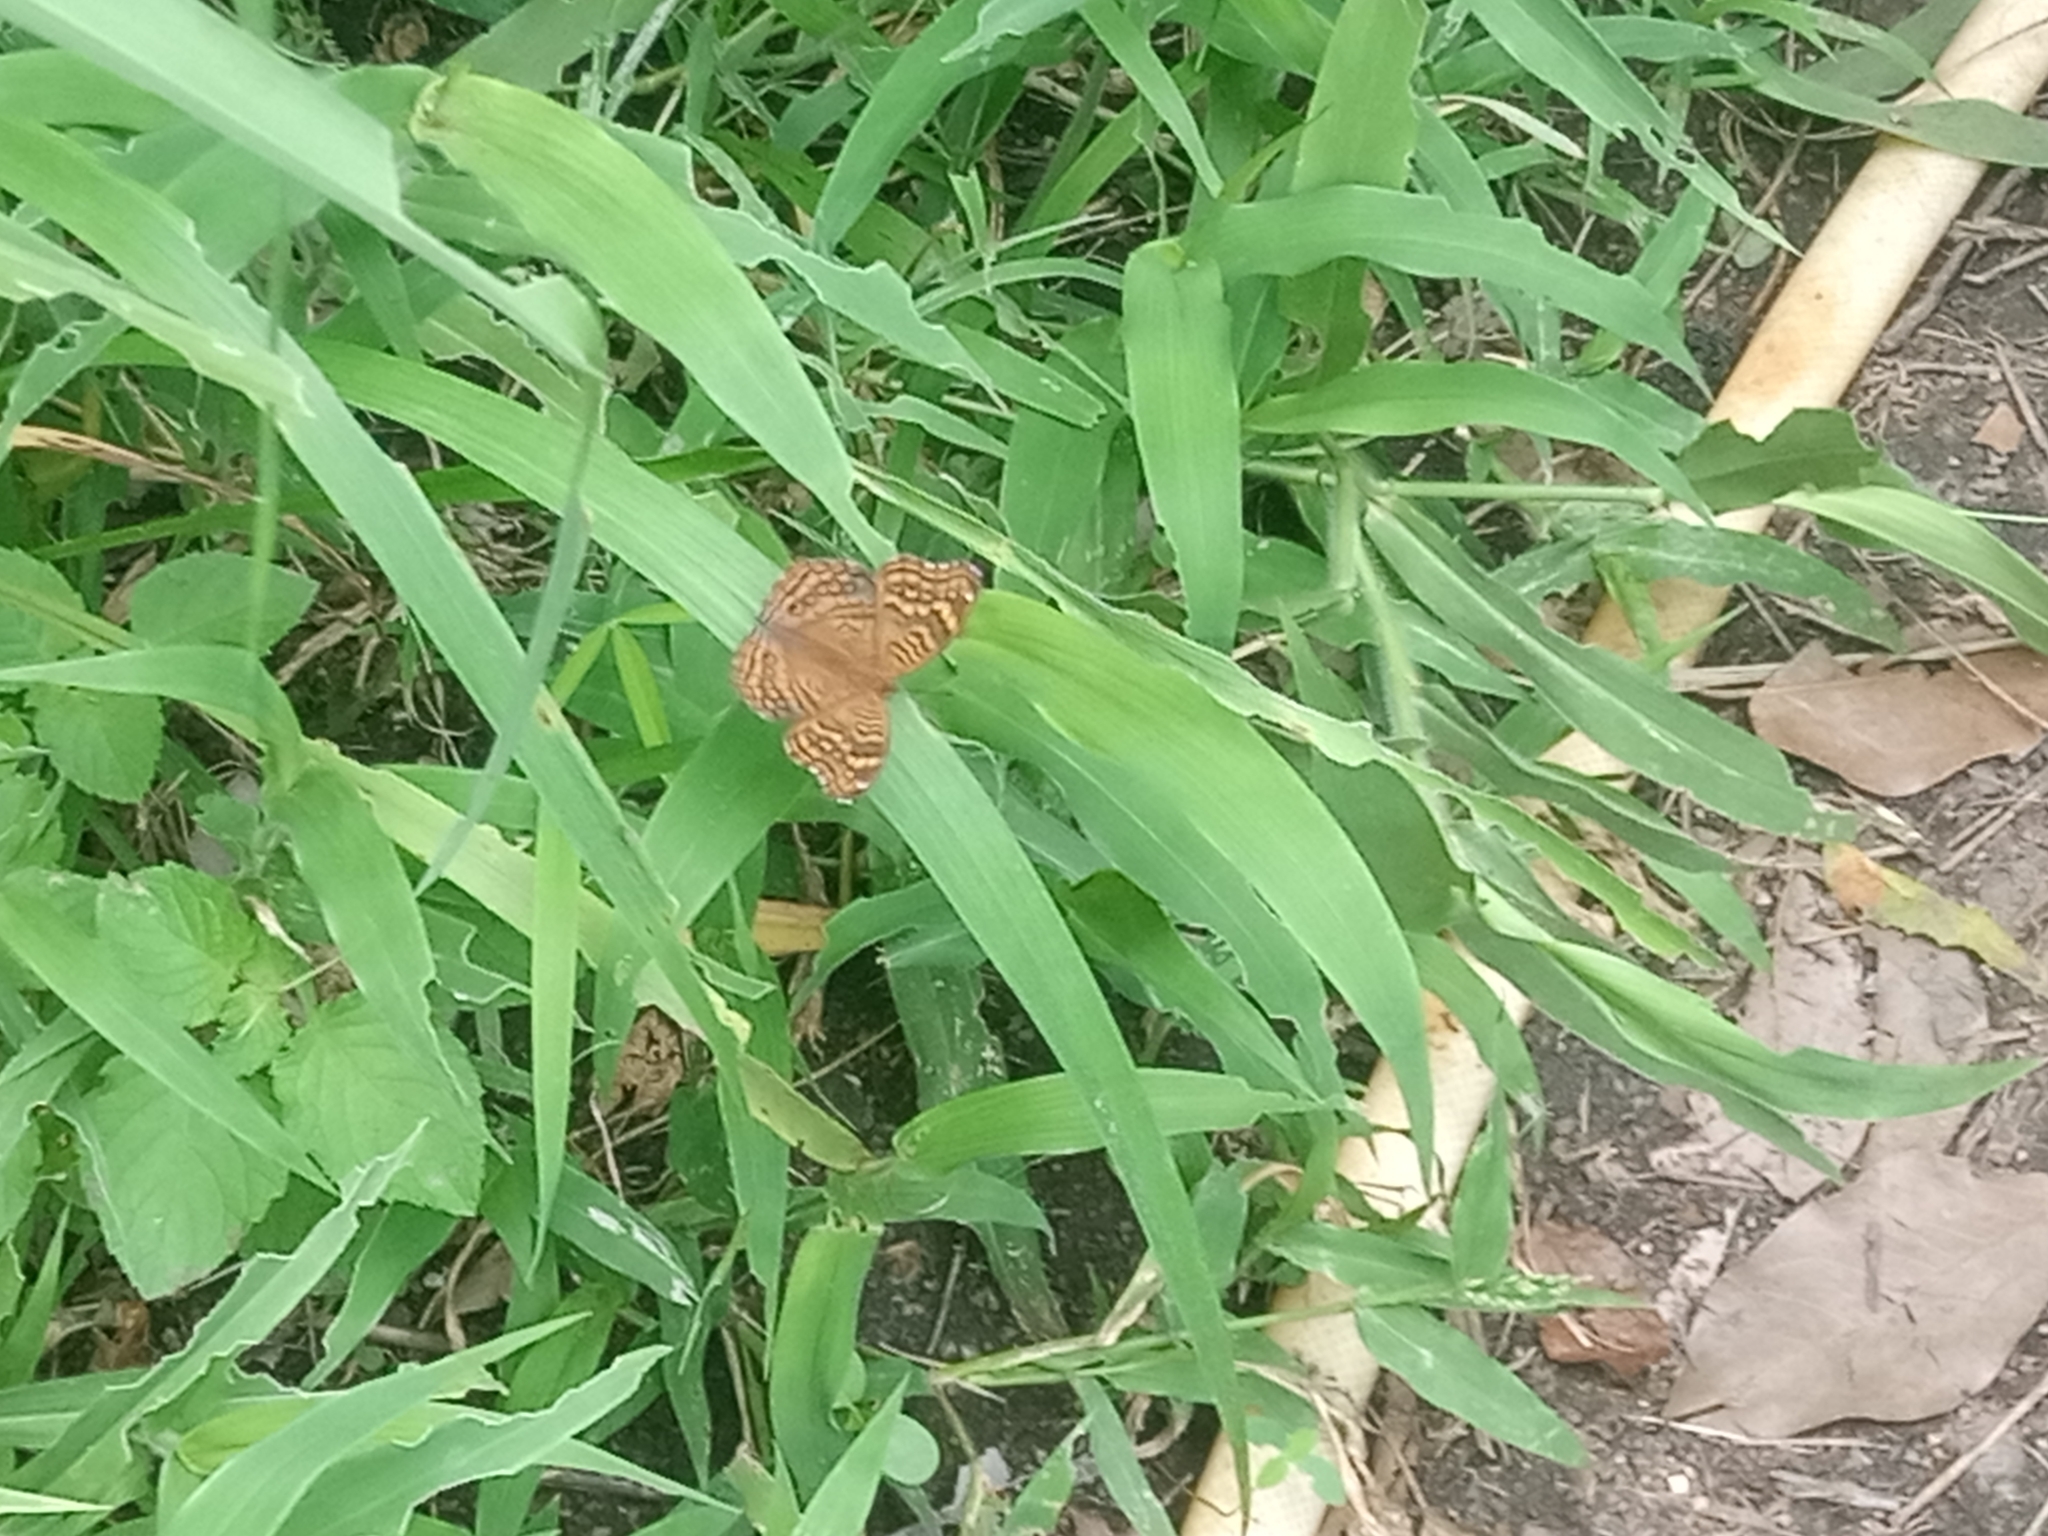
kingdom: Animalia
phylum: Arthropoda
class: Insecta
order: Lepidoptera
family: Nymphalidae
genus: Junonia
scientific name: Junonia chorimene
